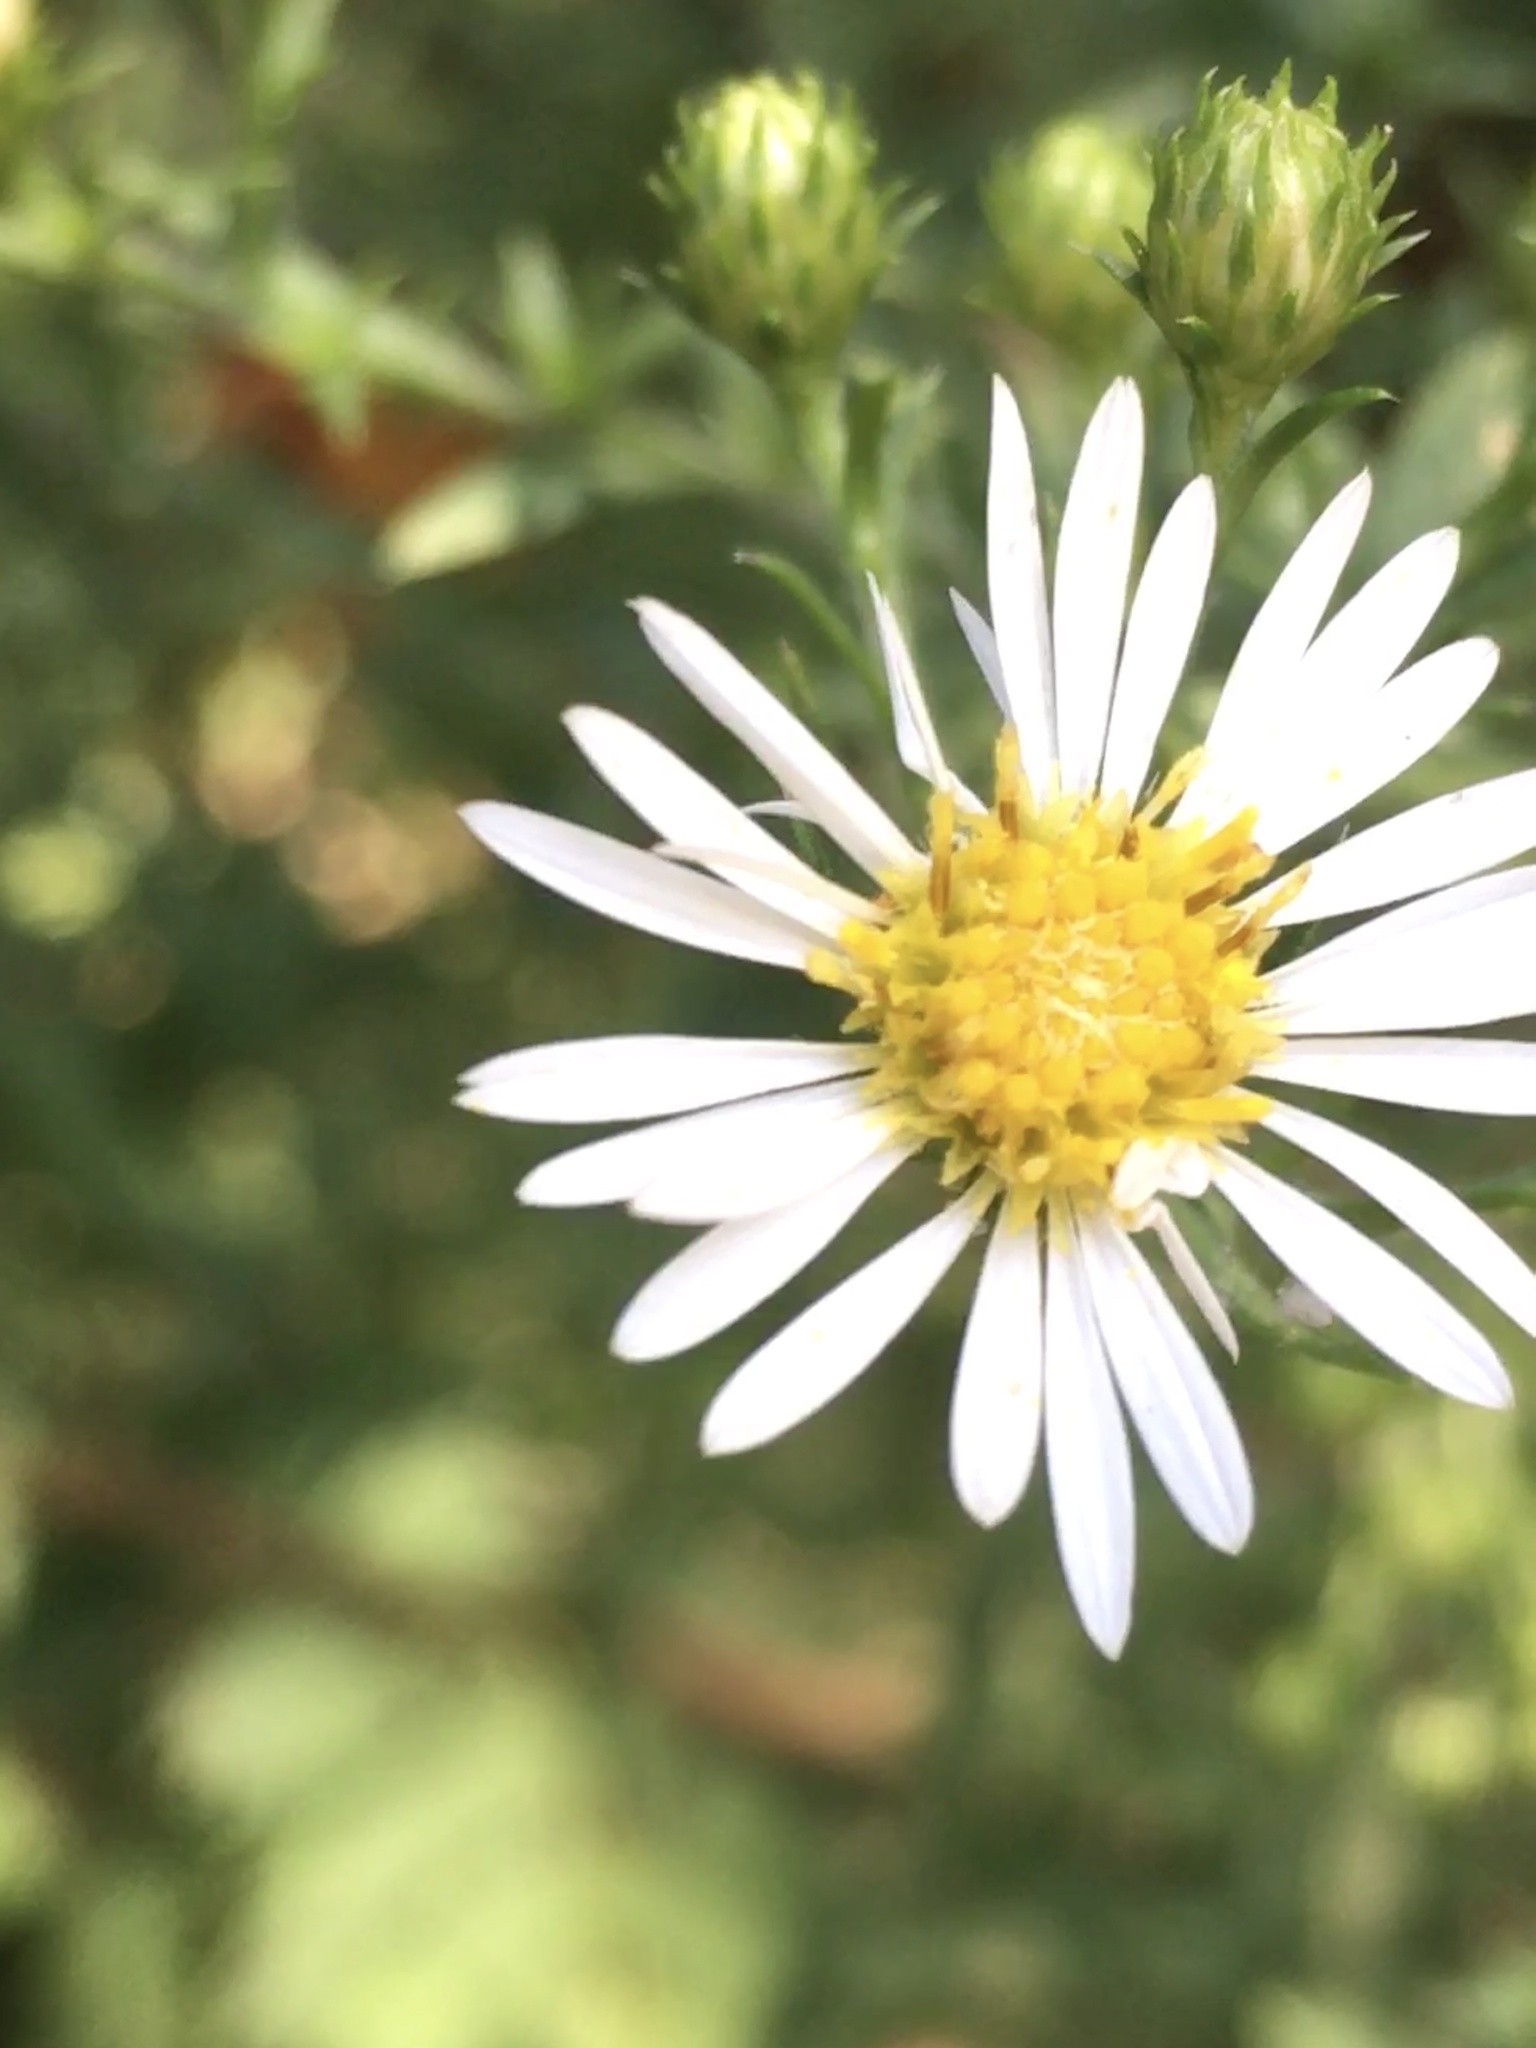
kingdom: Plantae
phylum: Tracheophyta
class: Magnoliopsida
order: Asterales
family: Asteraceae
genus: Symphyotrichum
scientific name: Symphyotrichum pilosum
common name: Awl aster
